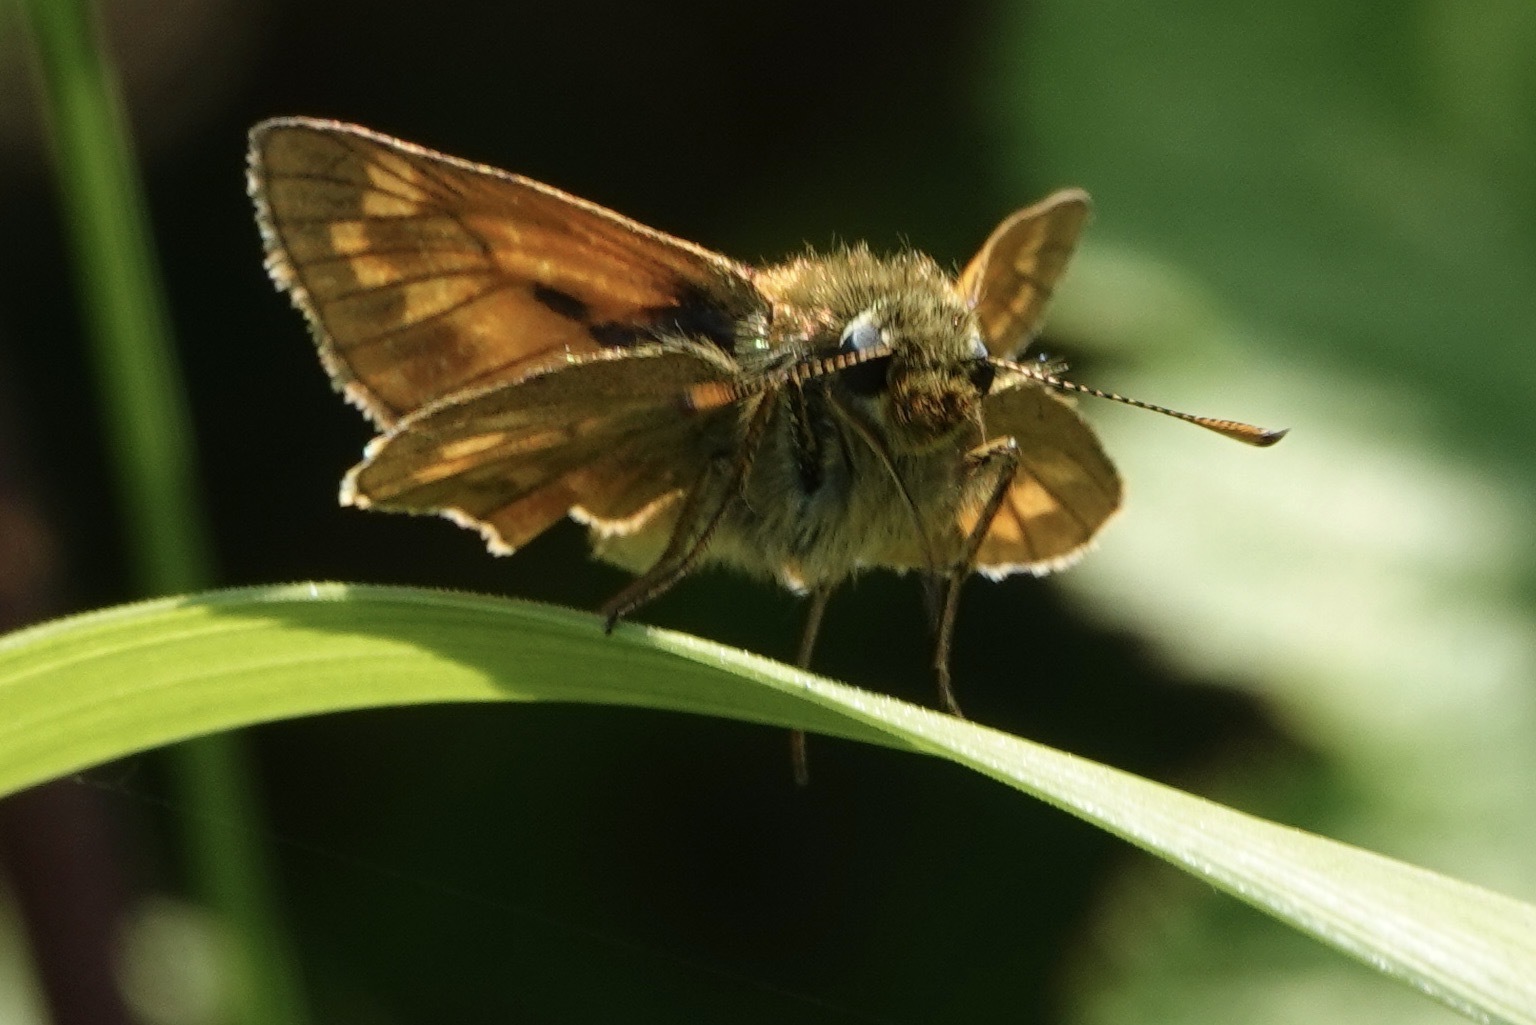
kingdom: Animalia
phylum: Arthropoda
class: Insecta
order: Lepidoptera
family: Hesperiidae
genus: Ochlodes
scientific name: Ochlodes venata
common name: Large skipper
